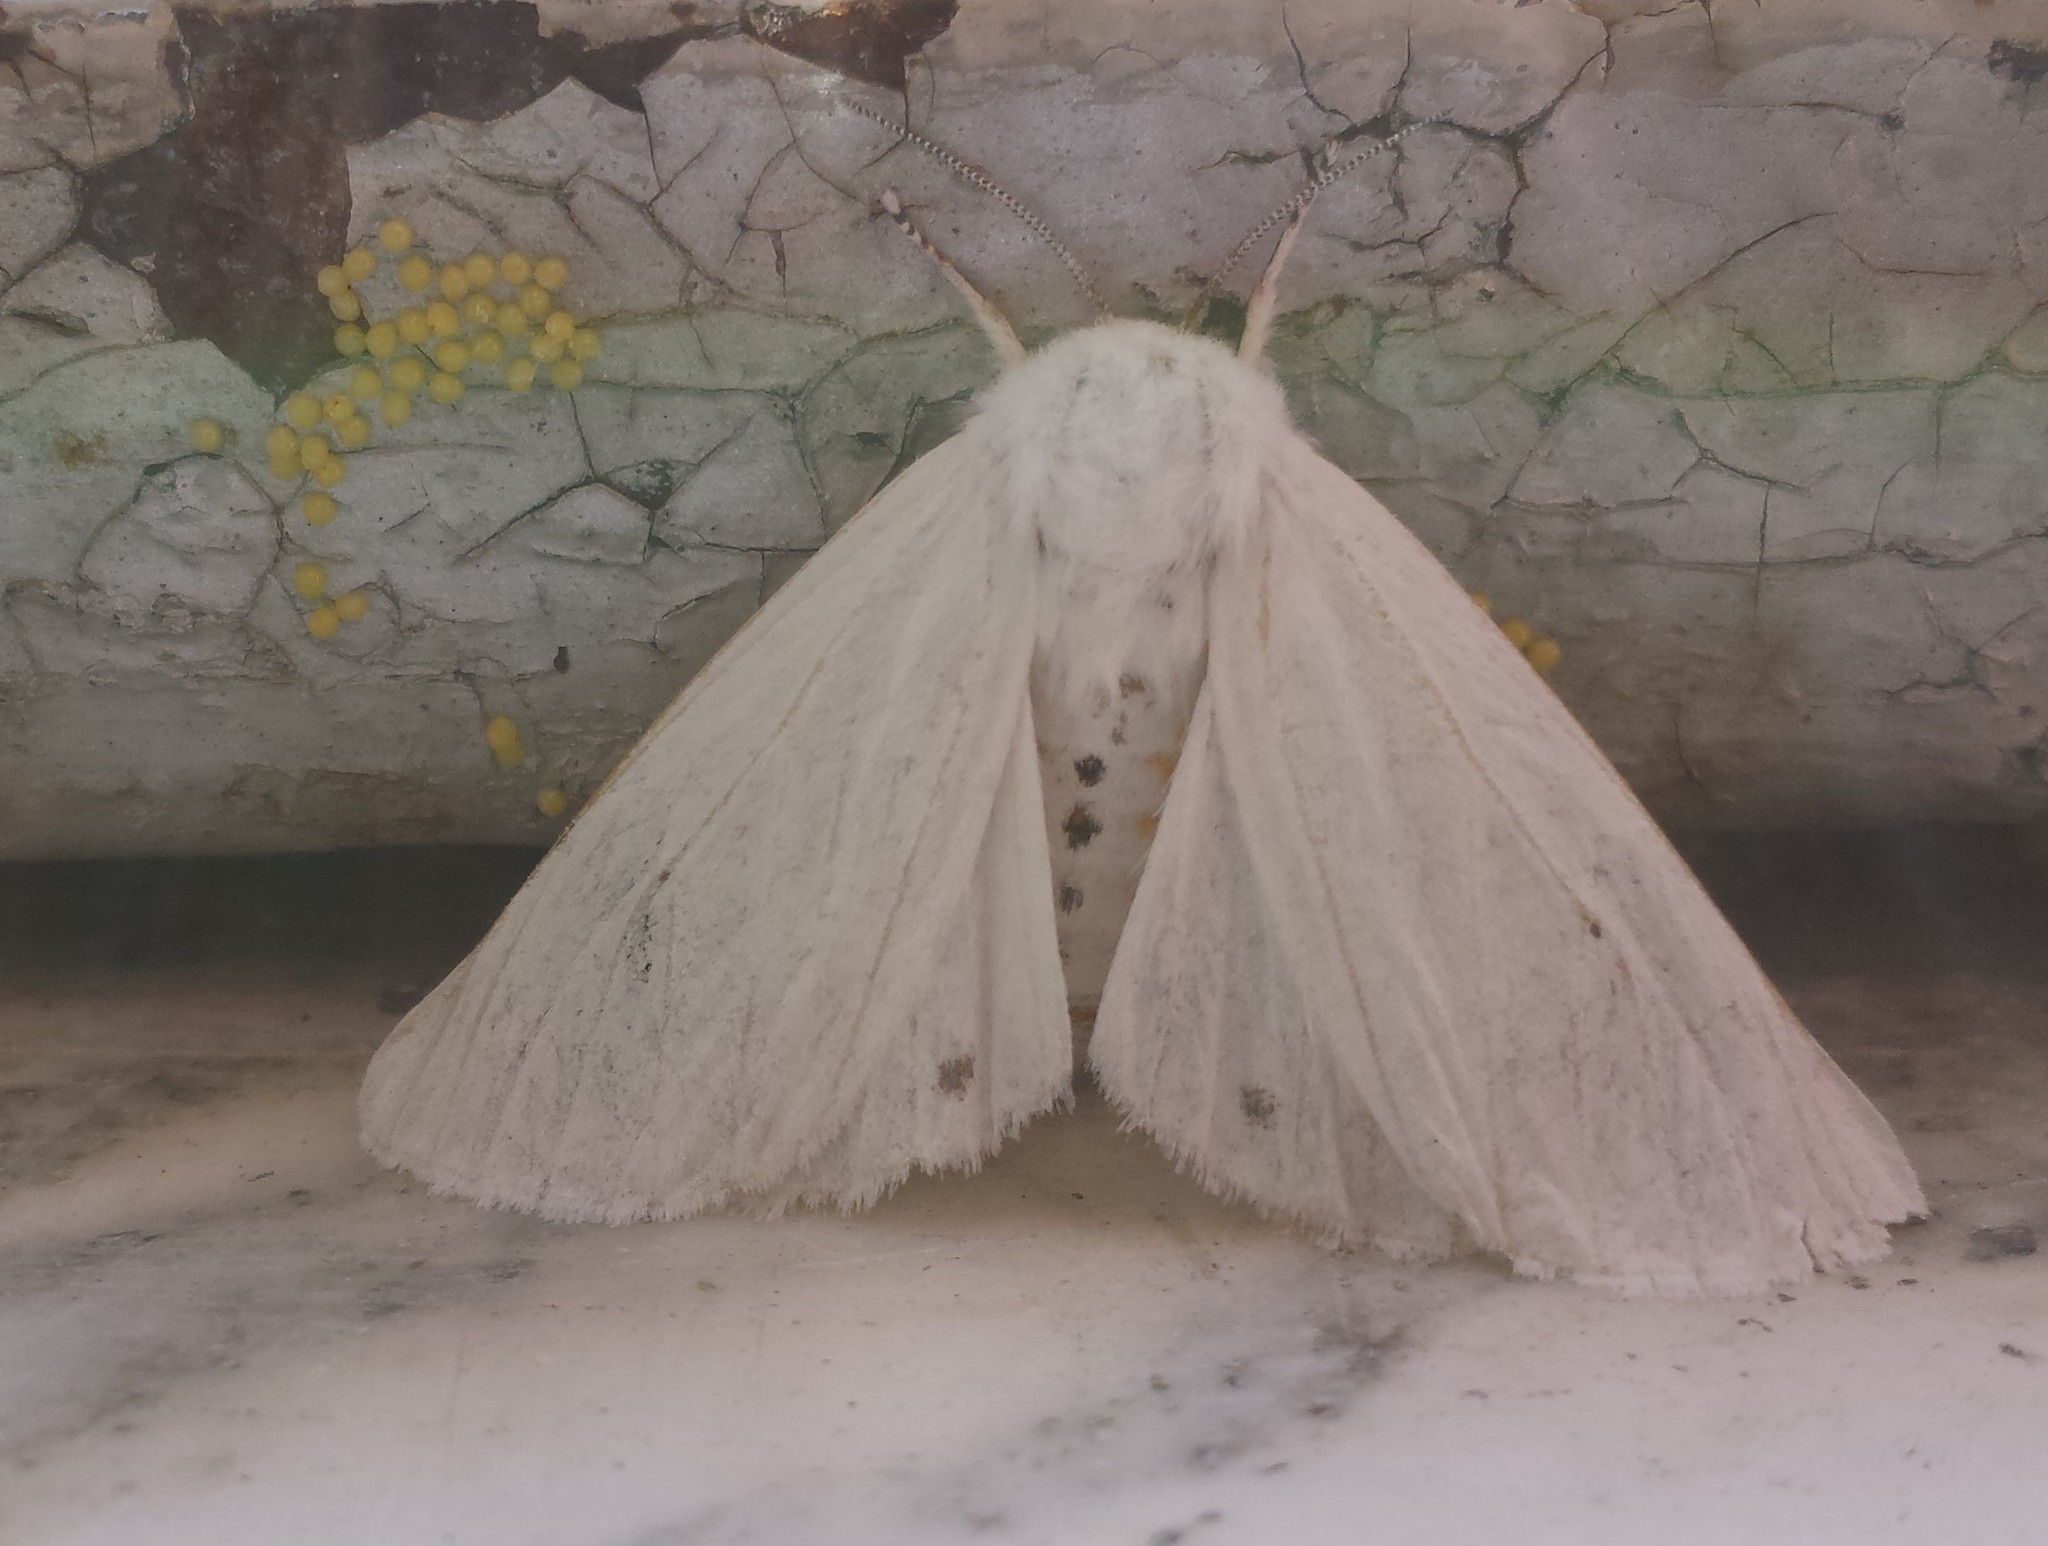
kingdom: Animalia
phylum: Arthropoda
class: Insecta
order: Lepidoptera
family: Erebidae
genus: Spilosoma
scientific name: Spilosoma virginica
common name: Virginia tiger moth
